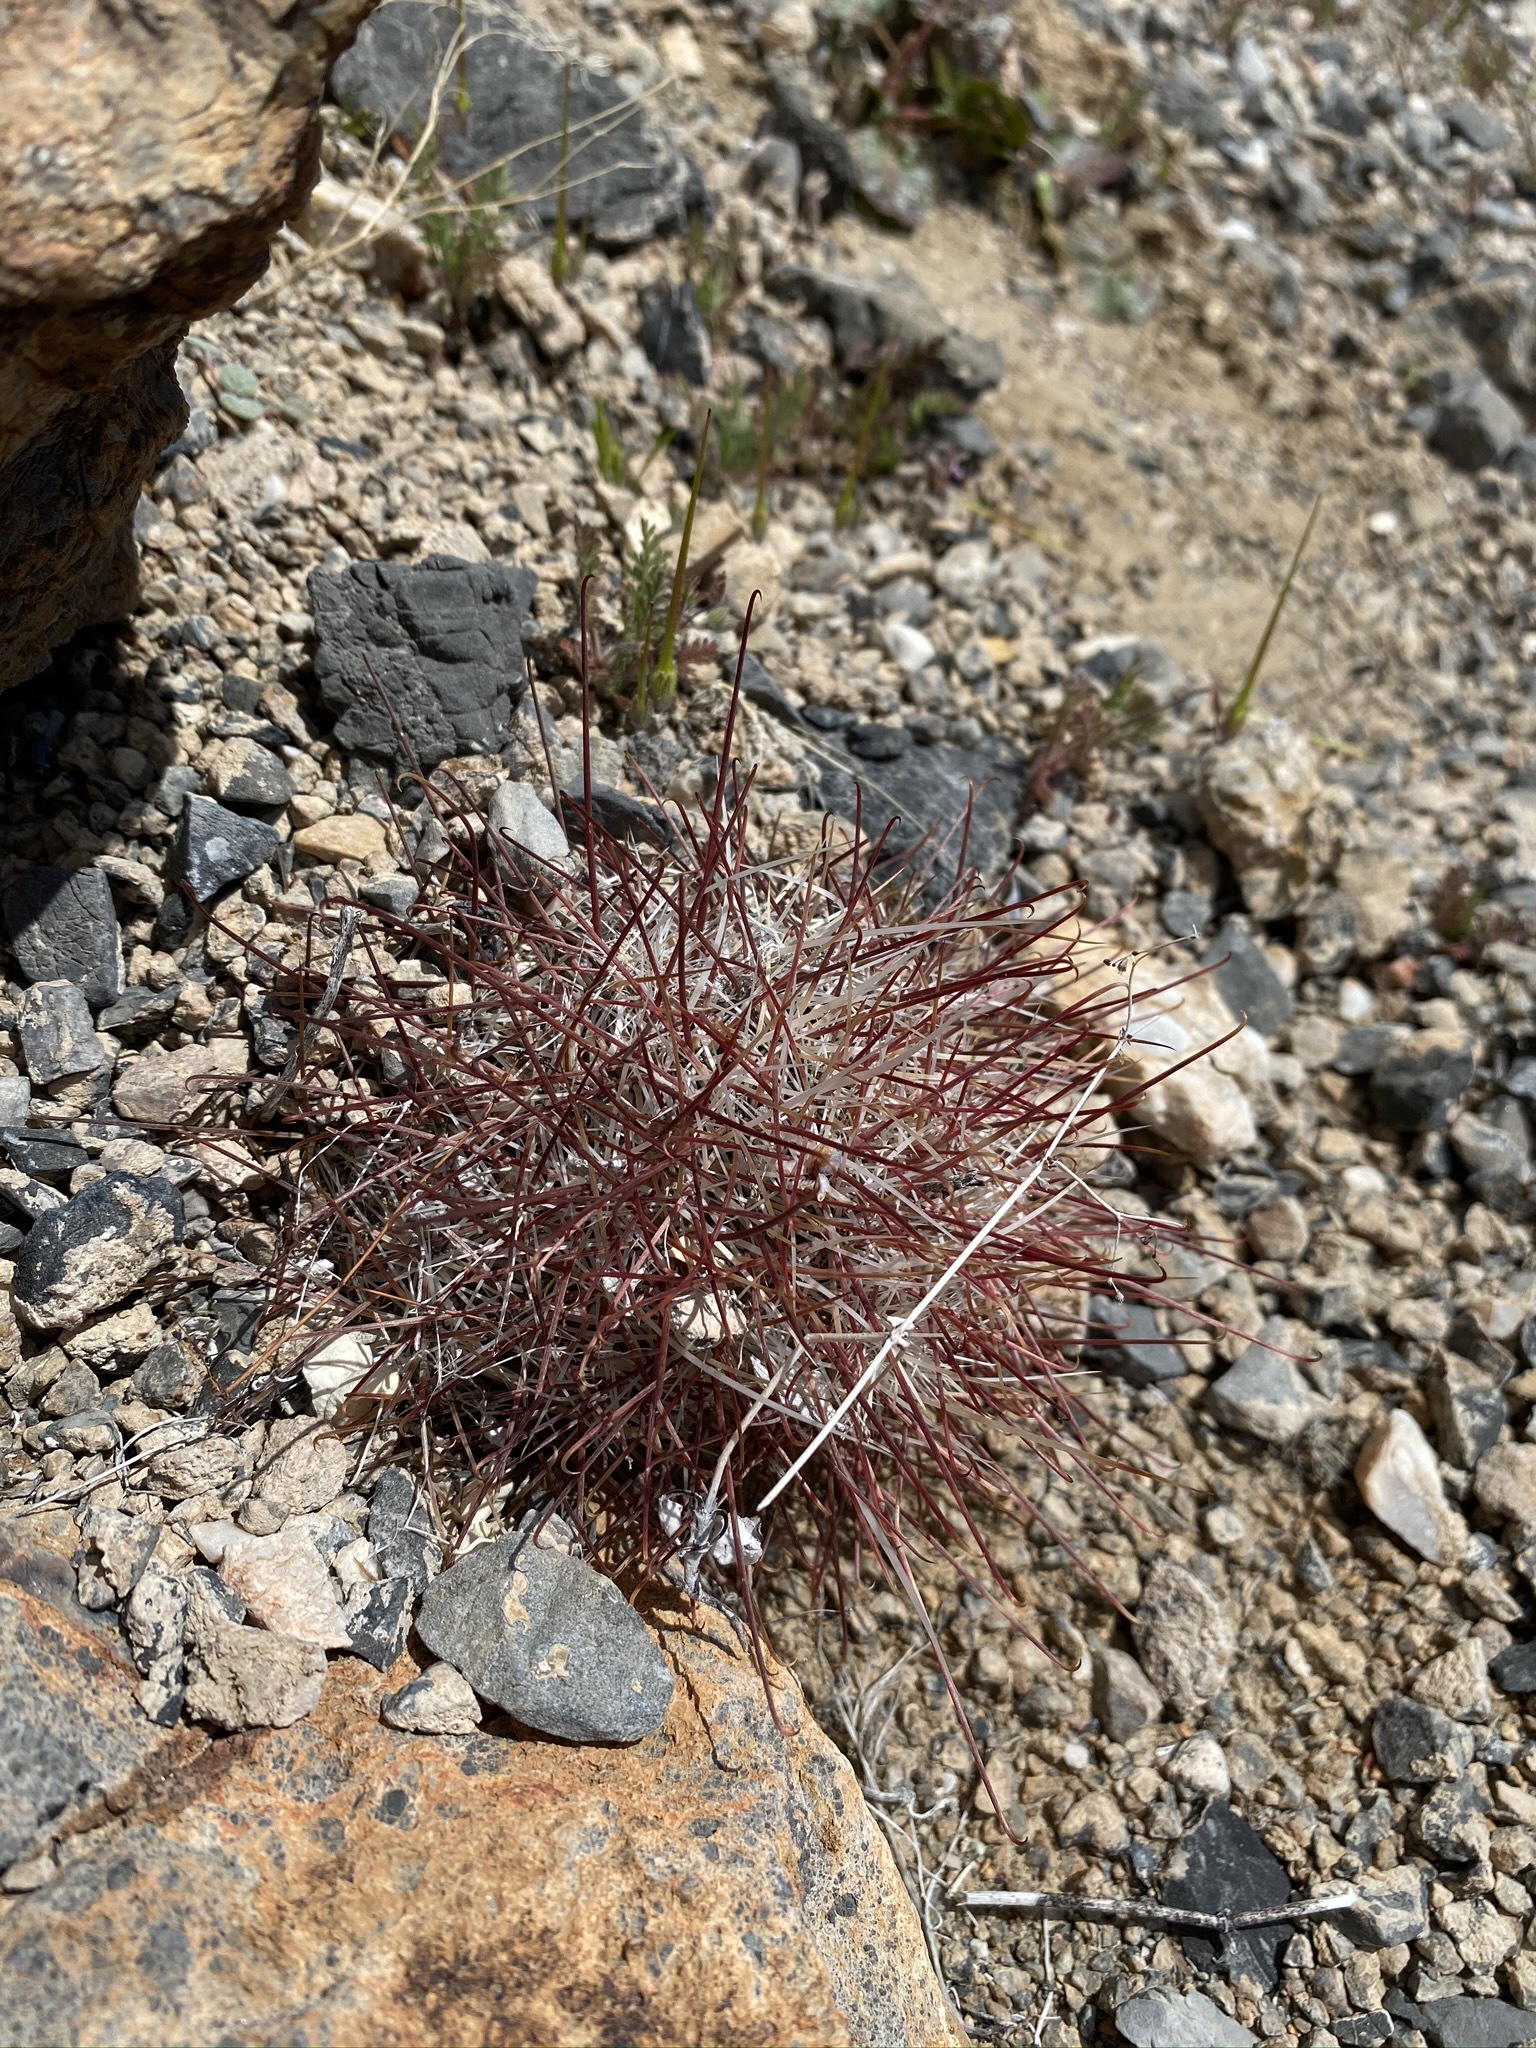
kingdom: Plantae
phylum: Tracheophyta
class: Magnoliopsida
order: Caryophyllales
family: Cactaceae
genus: Sclerocactus
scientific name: Sclerocactus polyancistrus
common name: Mohave fishhook cactus
